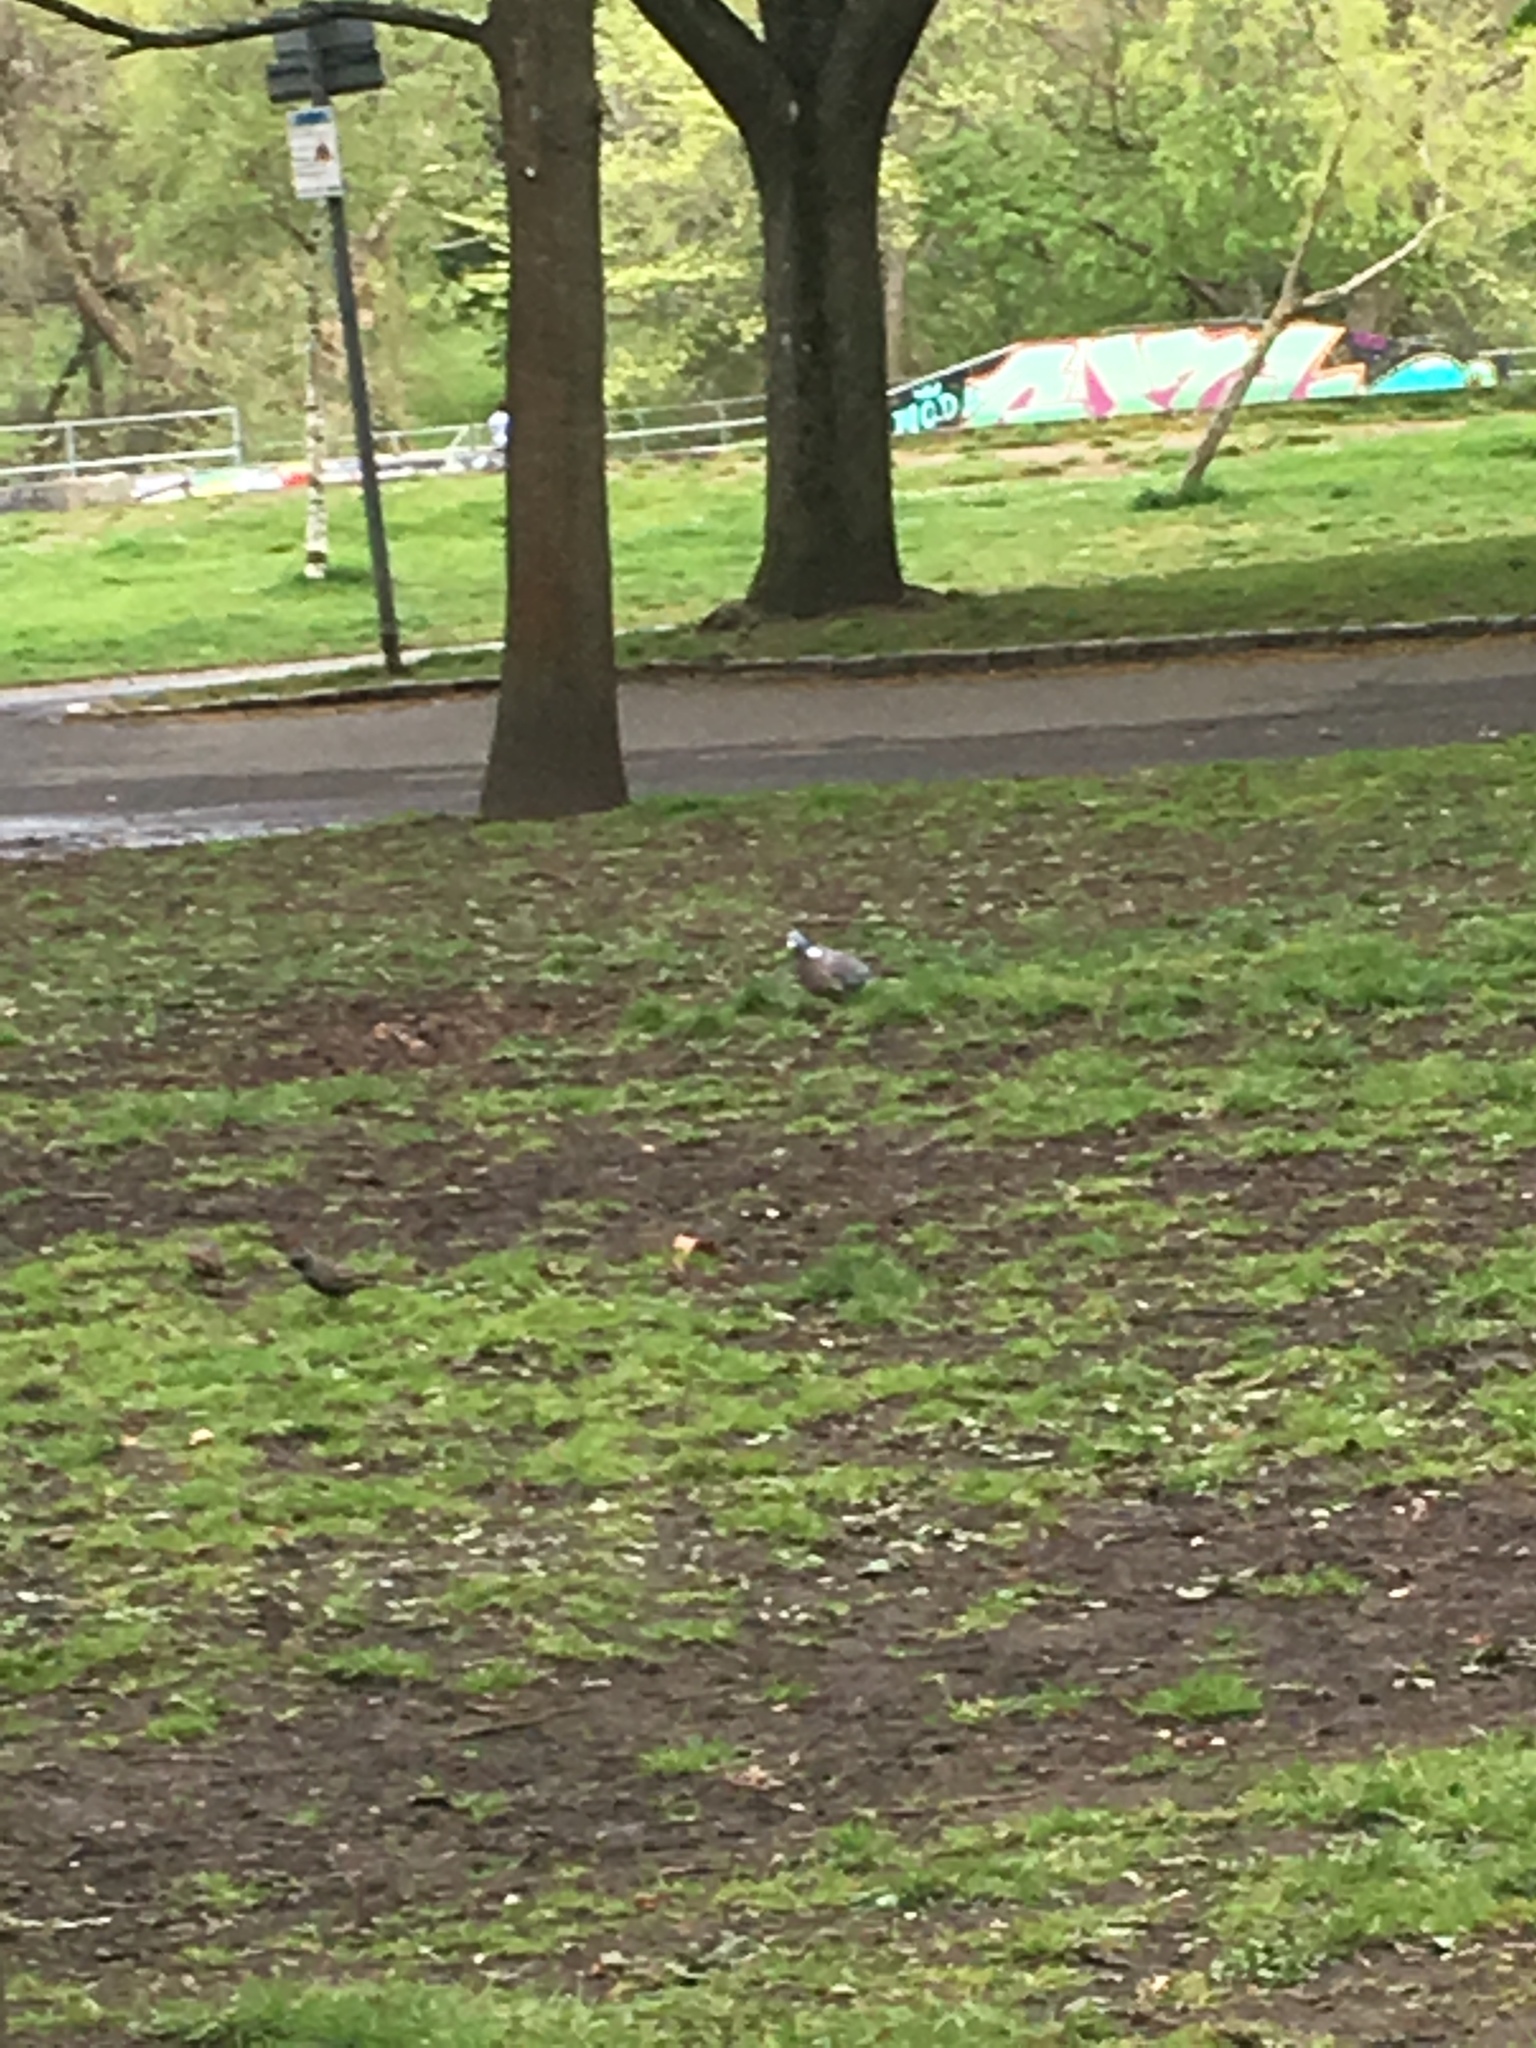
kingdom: Animalia
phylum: Chordata
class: Aves
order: Columbiformes
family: Columbidae
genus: Columba
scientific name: Columba palumbus
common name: Common wood pigeon
